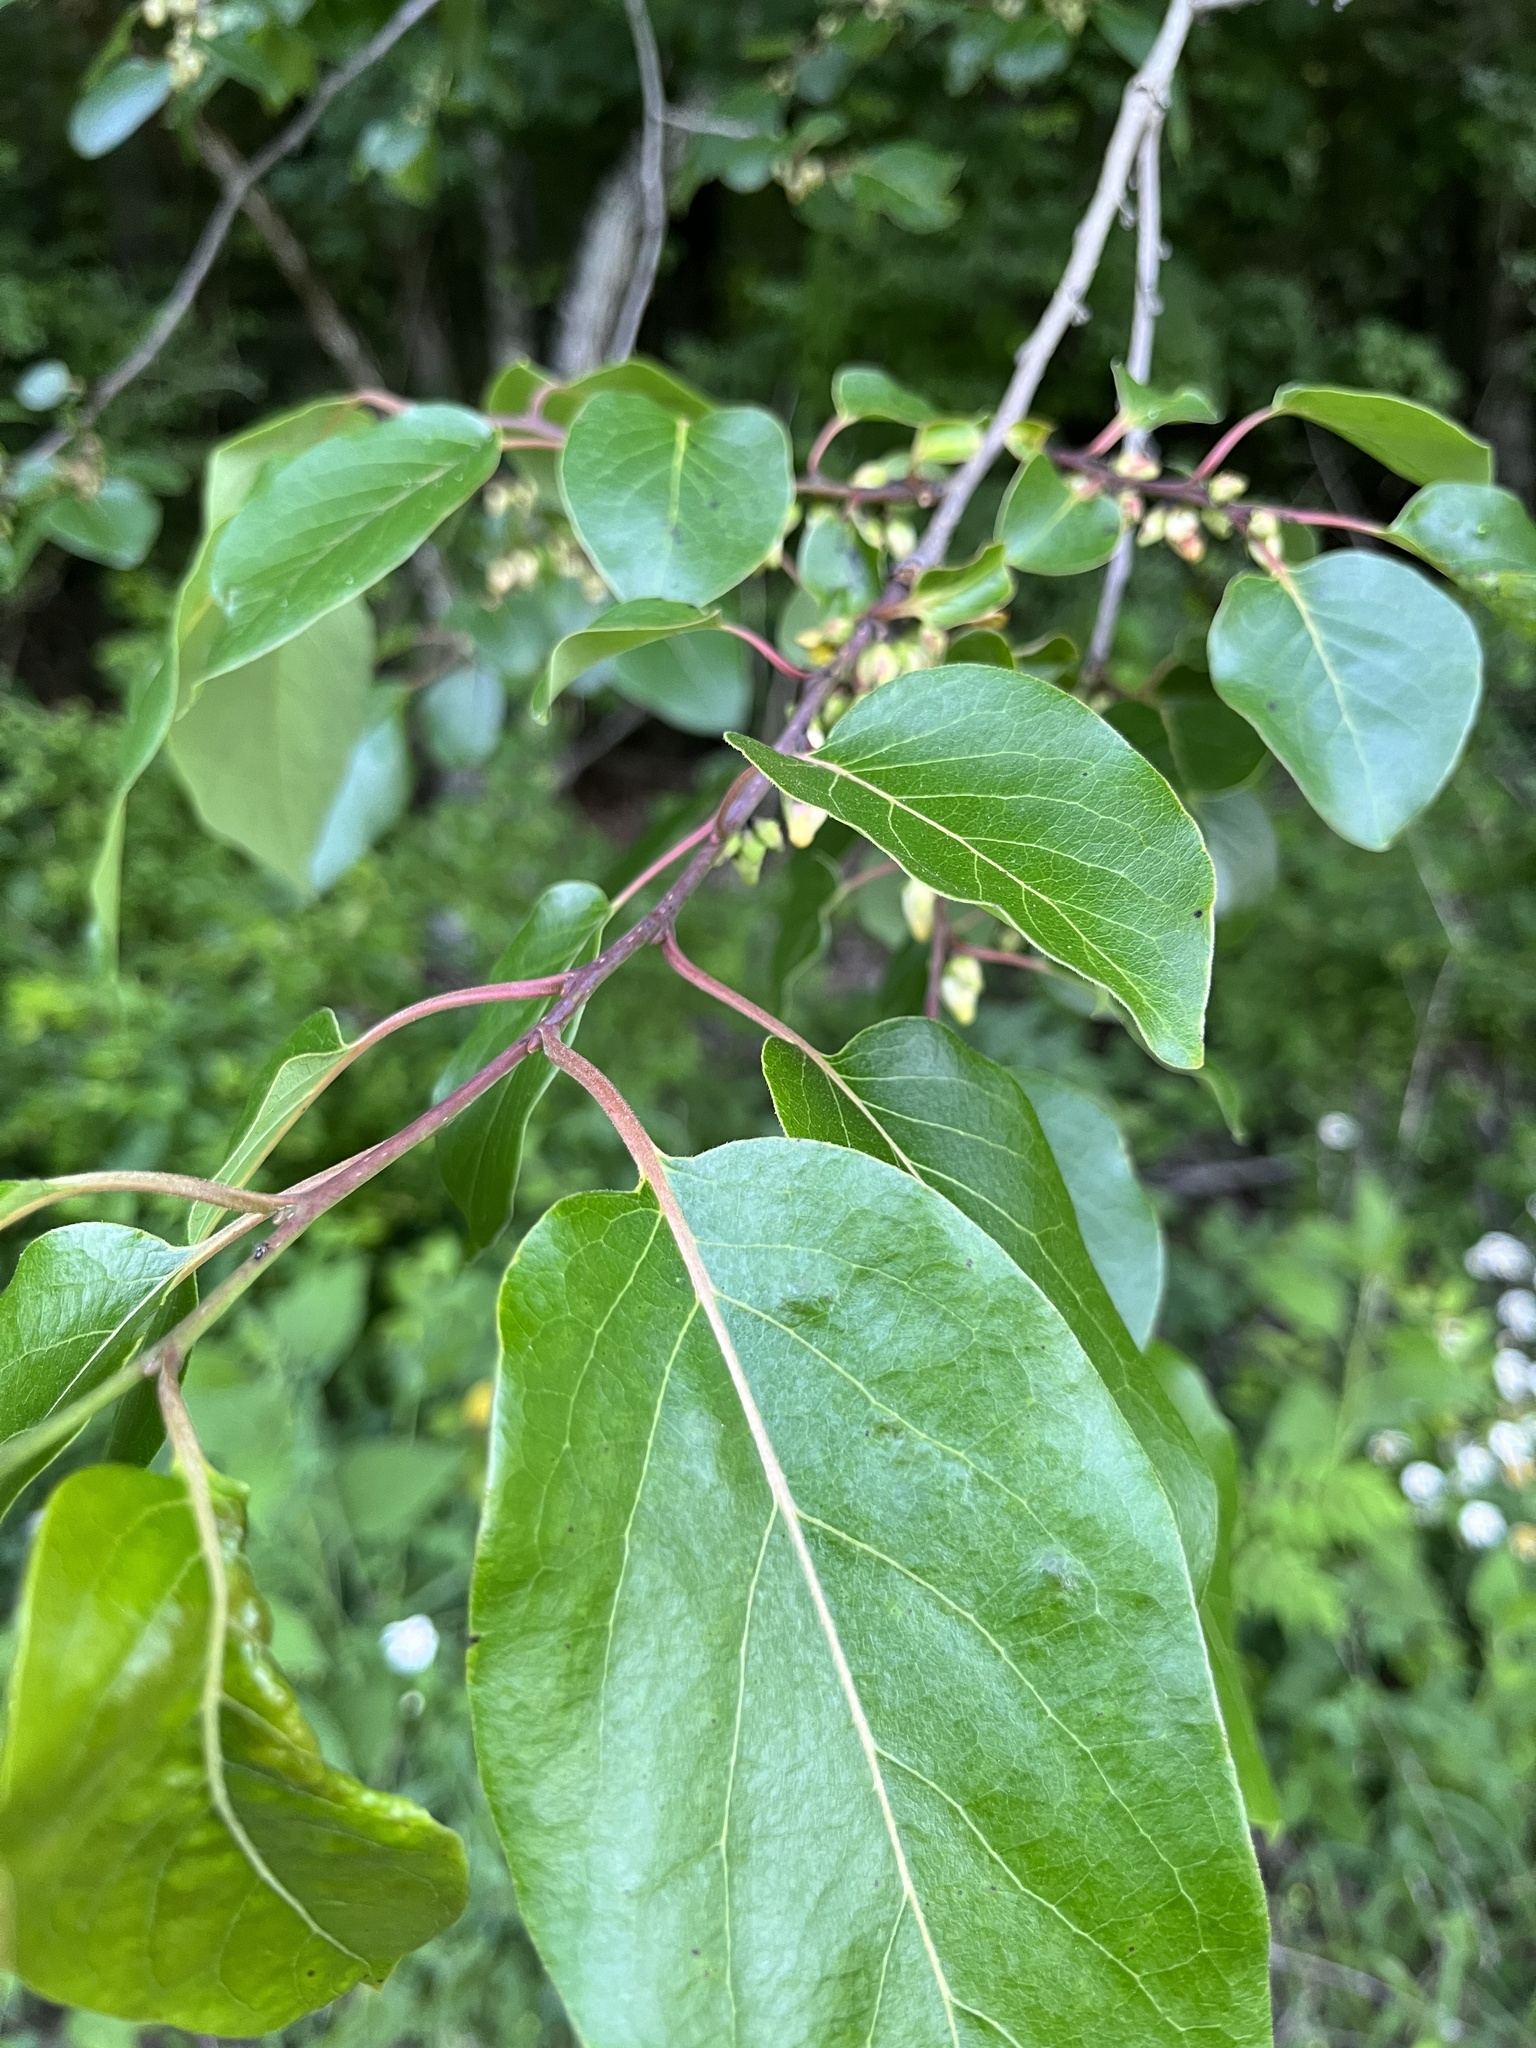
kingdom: Plantae
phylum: Tracheophyta
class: Magnoliopsida
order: Ericales
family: Ebenaceae
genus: Diospyros
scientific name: Diospyros virginiana
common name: Persimmon
